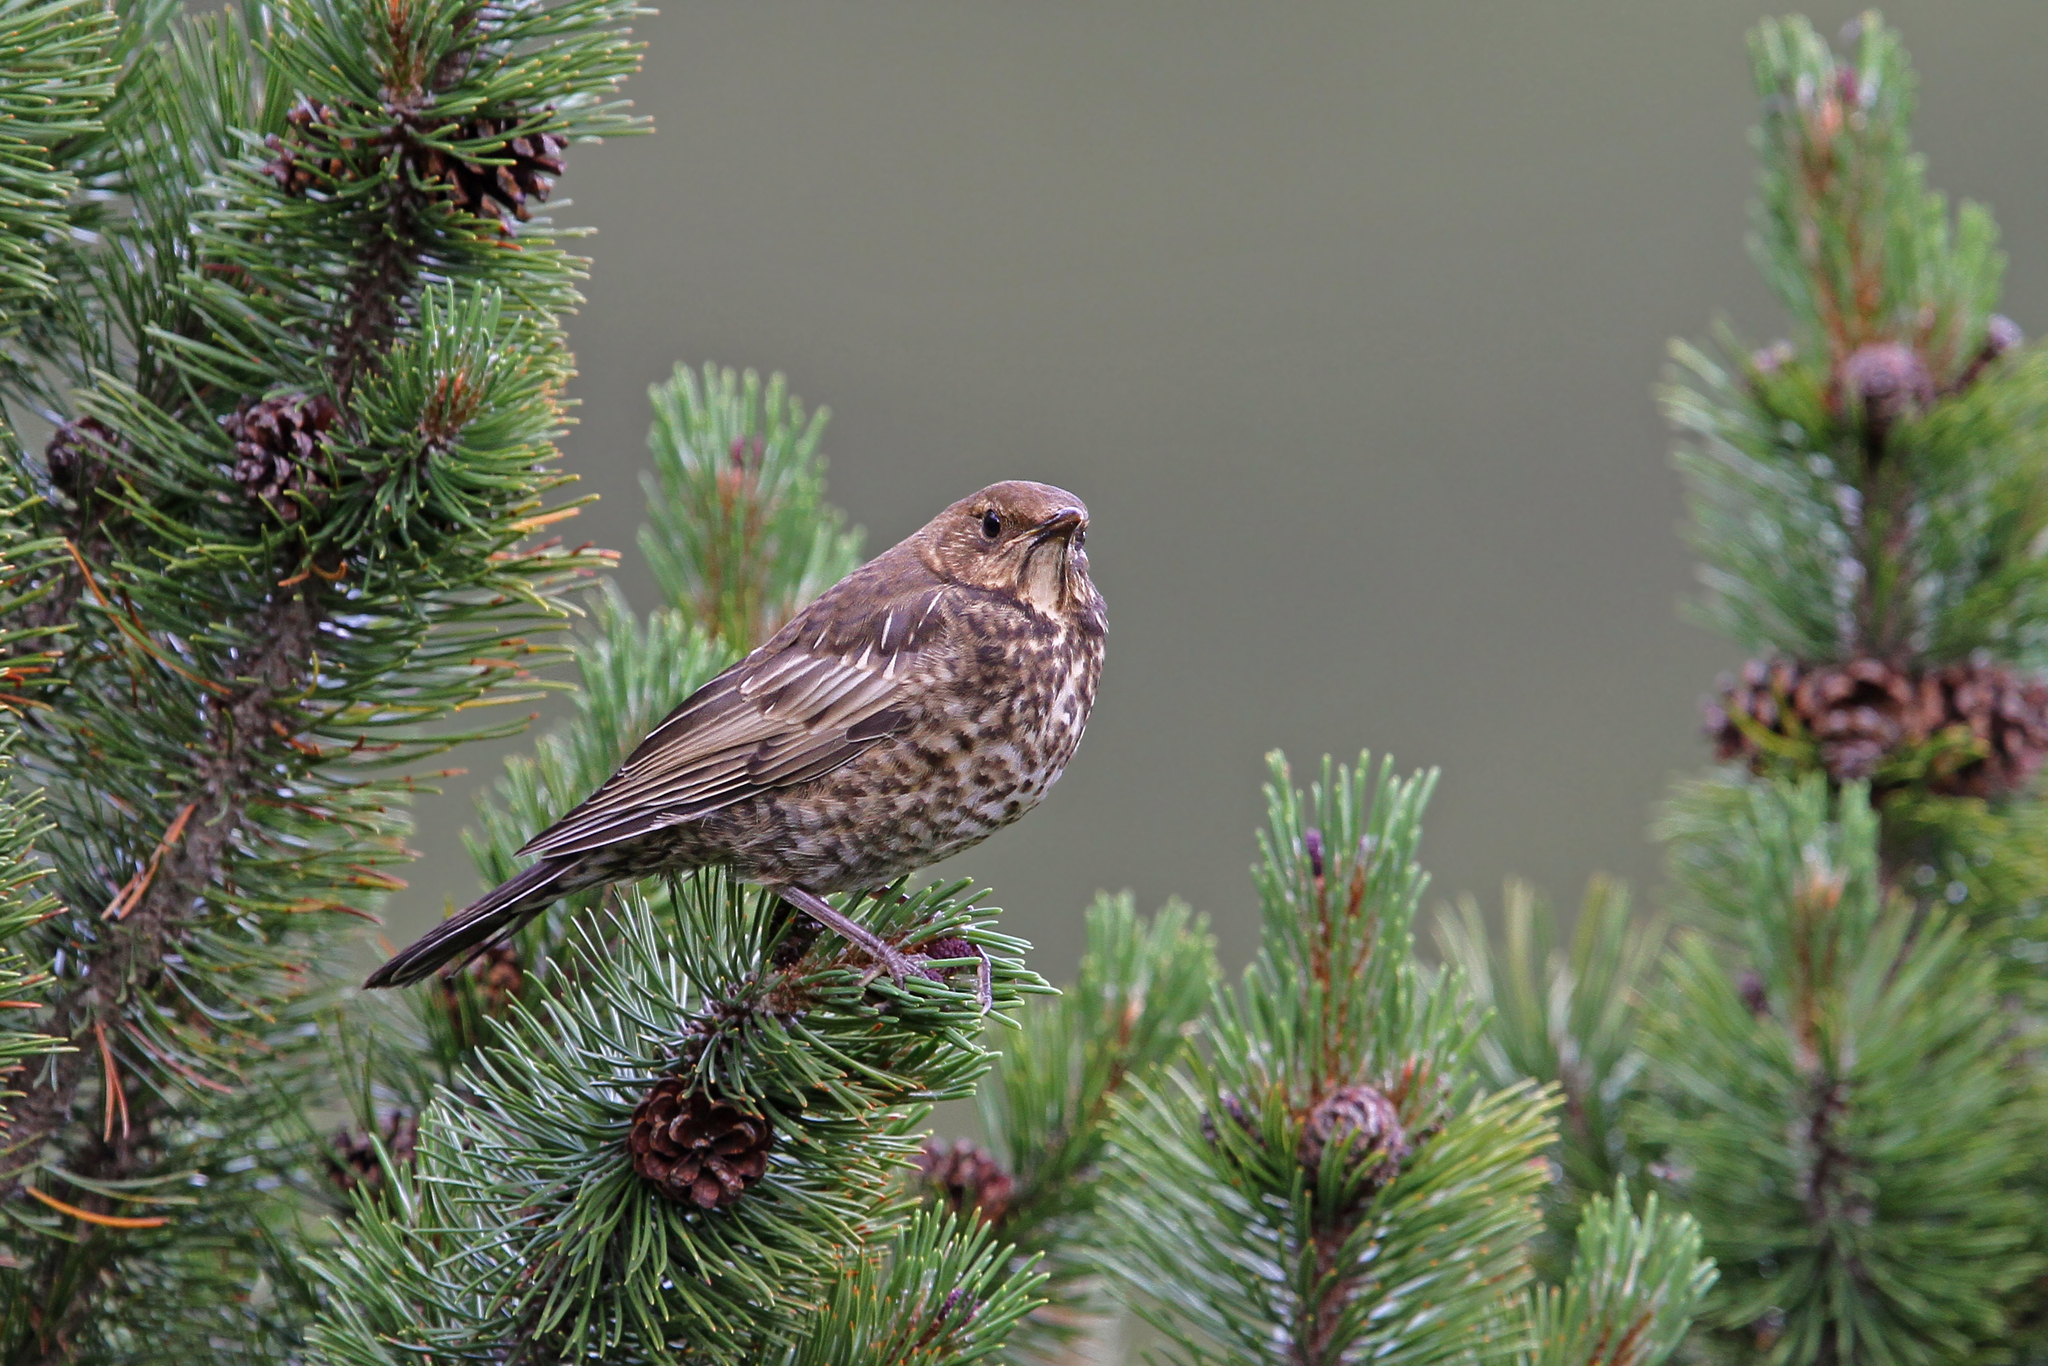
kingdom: Animalia
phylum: Chordata
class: Aves
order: Passeriformes
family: Turdidae
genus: Turdus
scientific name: Turdus torquatus
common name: Ring ouzel
